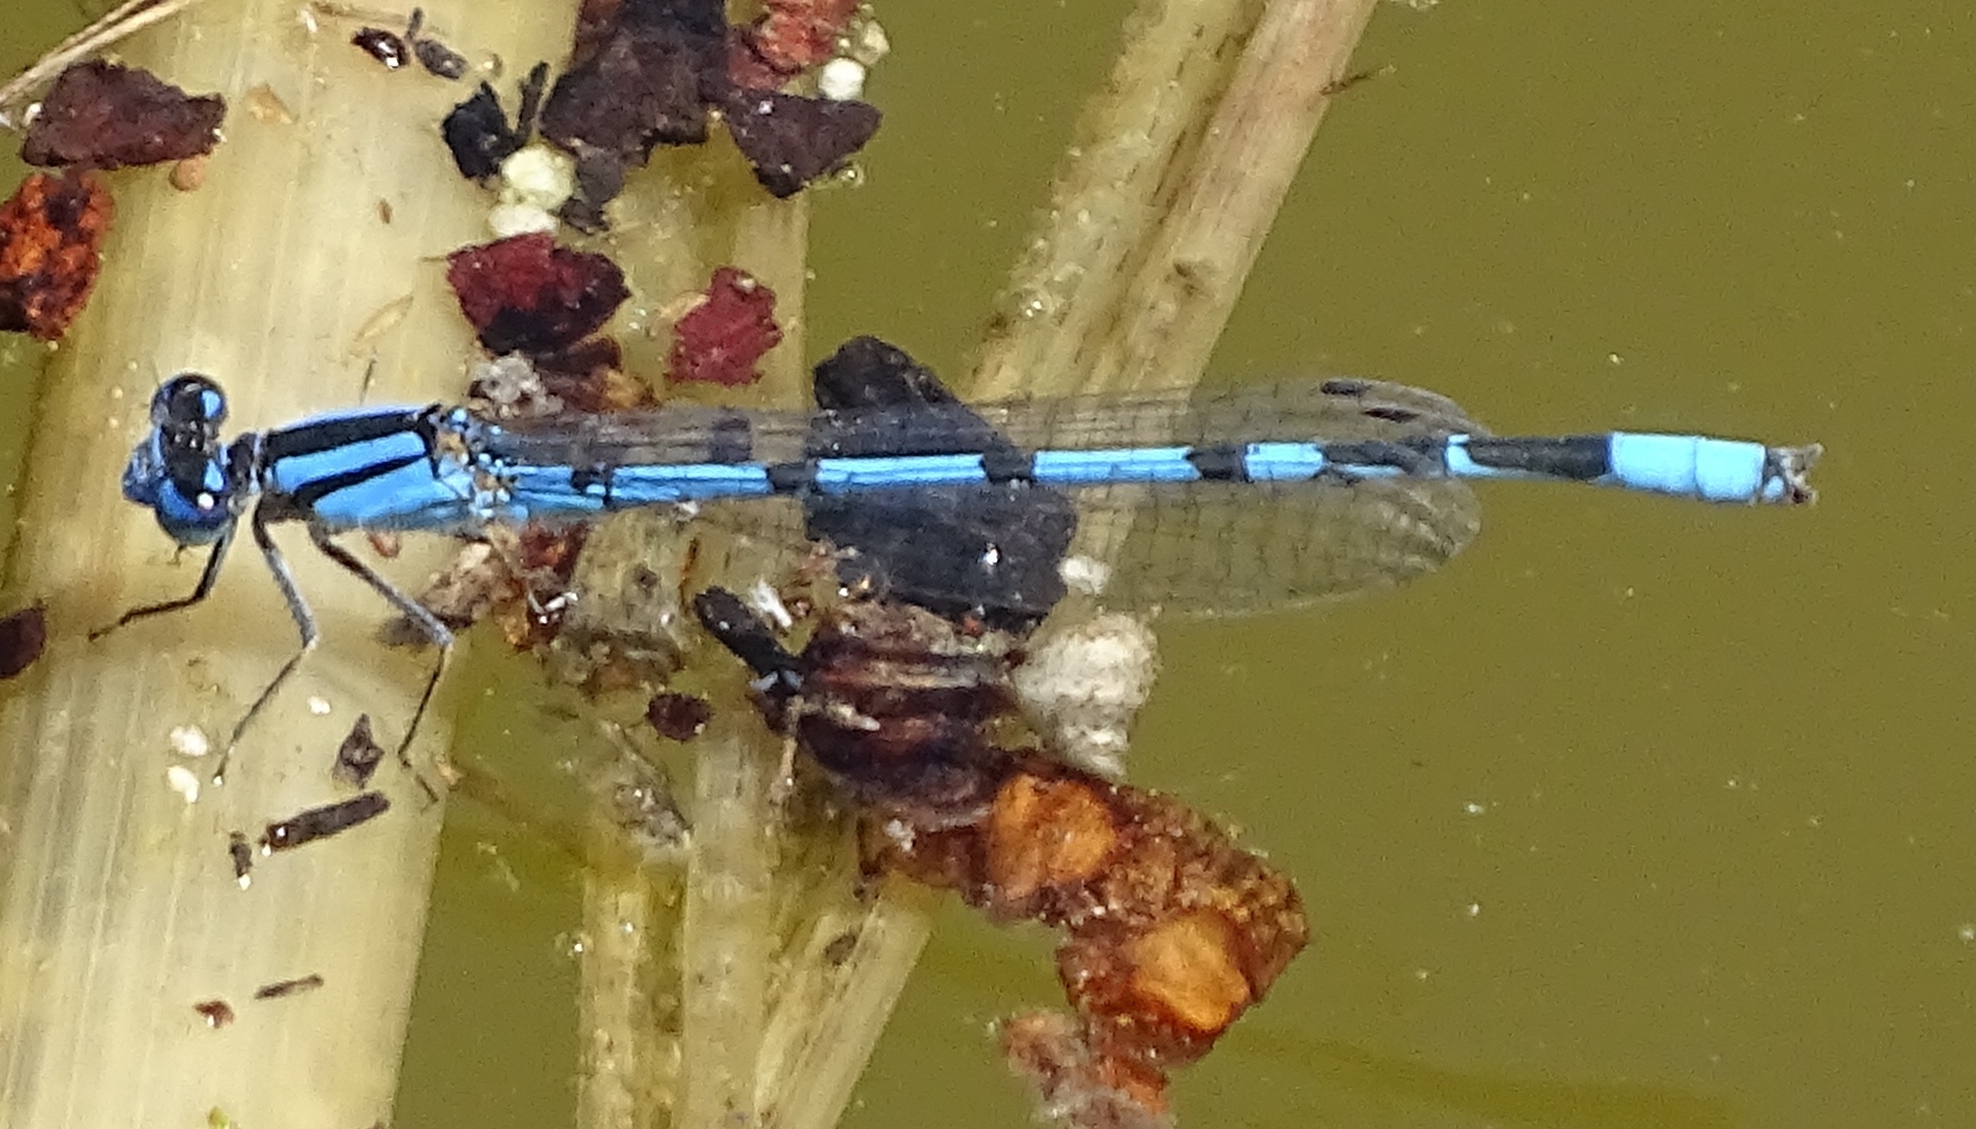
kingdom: Animalia
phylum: Arthropoda
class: Insecta
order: Odonata
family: Coenagrionidae
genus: Enallagma
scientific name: Enallagma civile
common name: Damselfly
